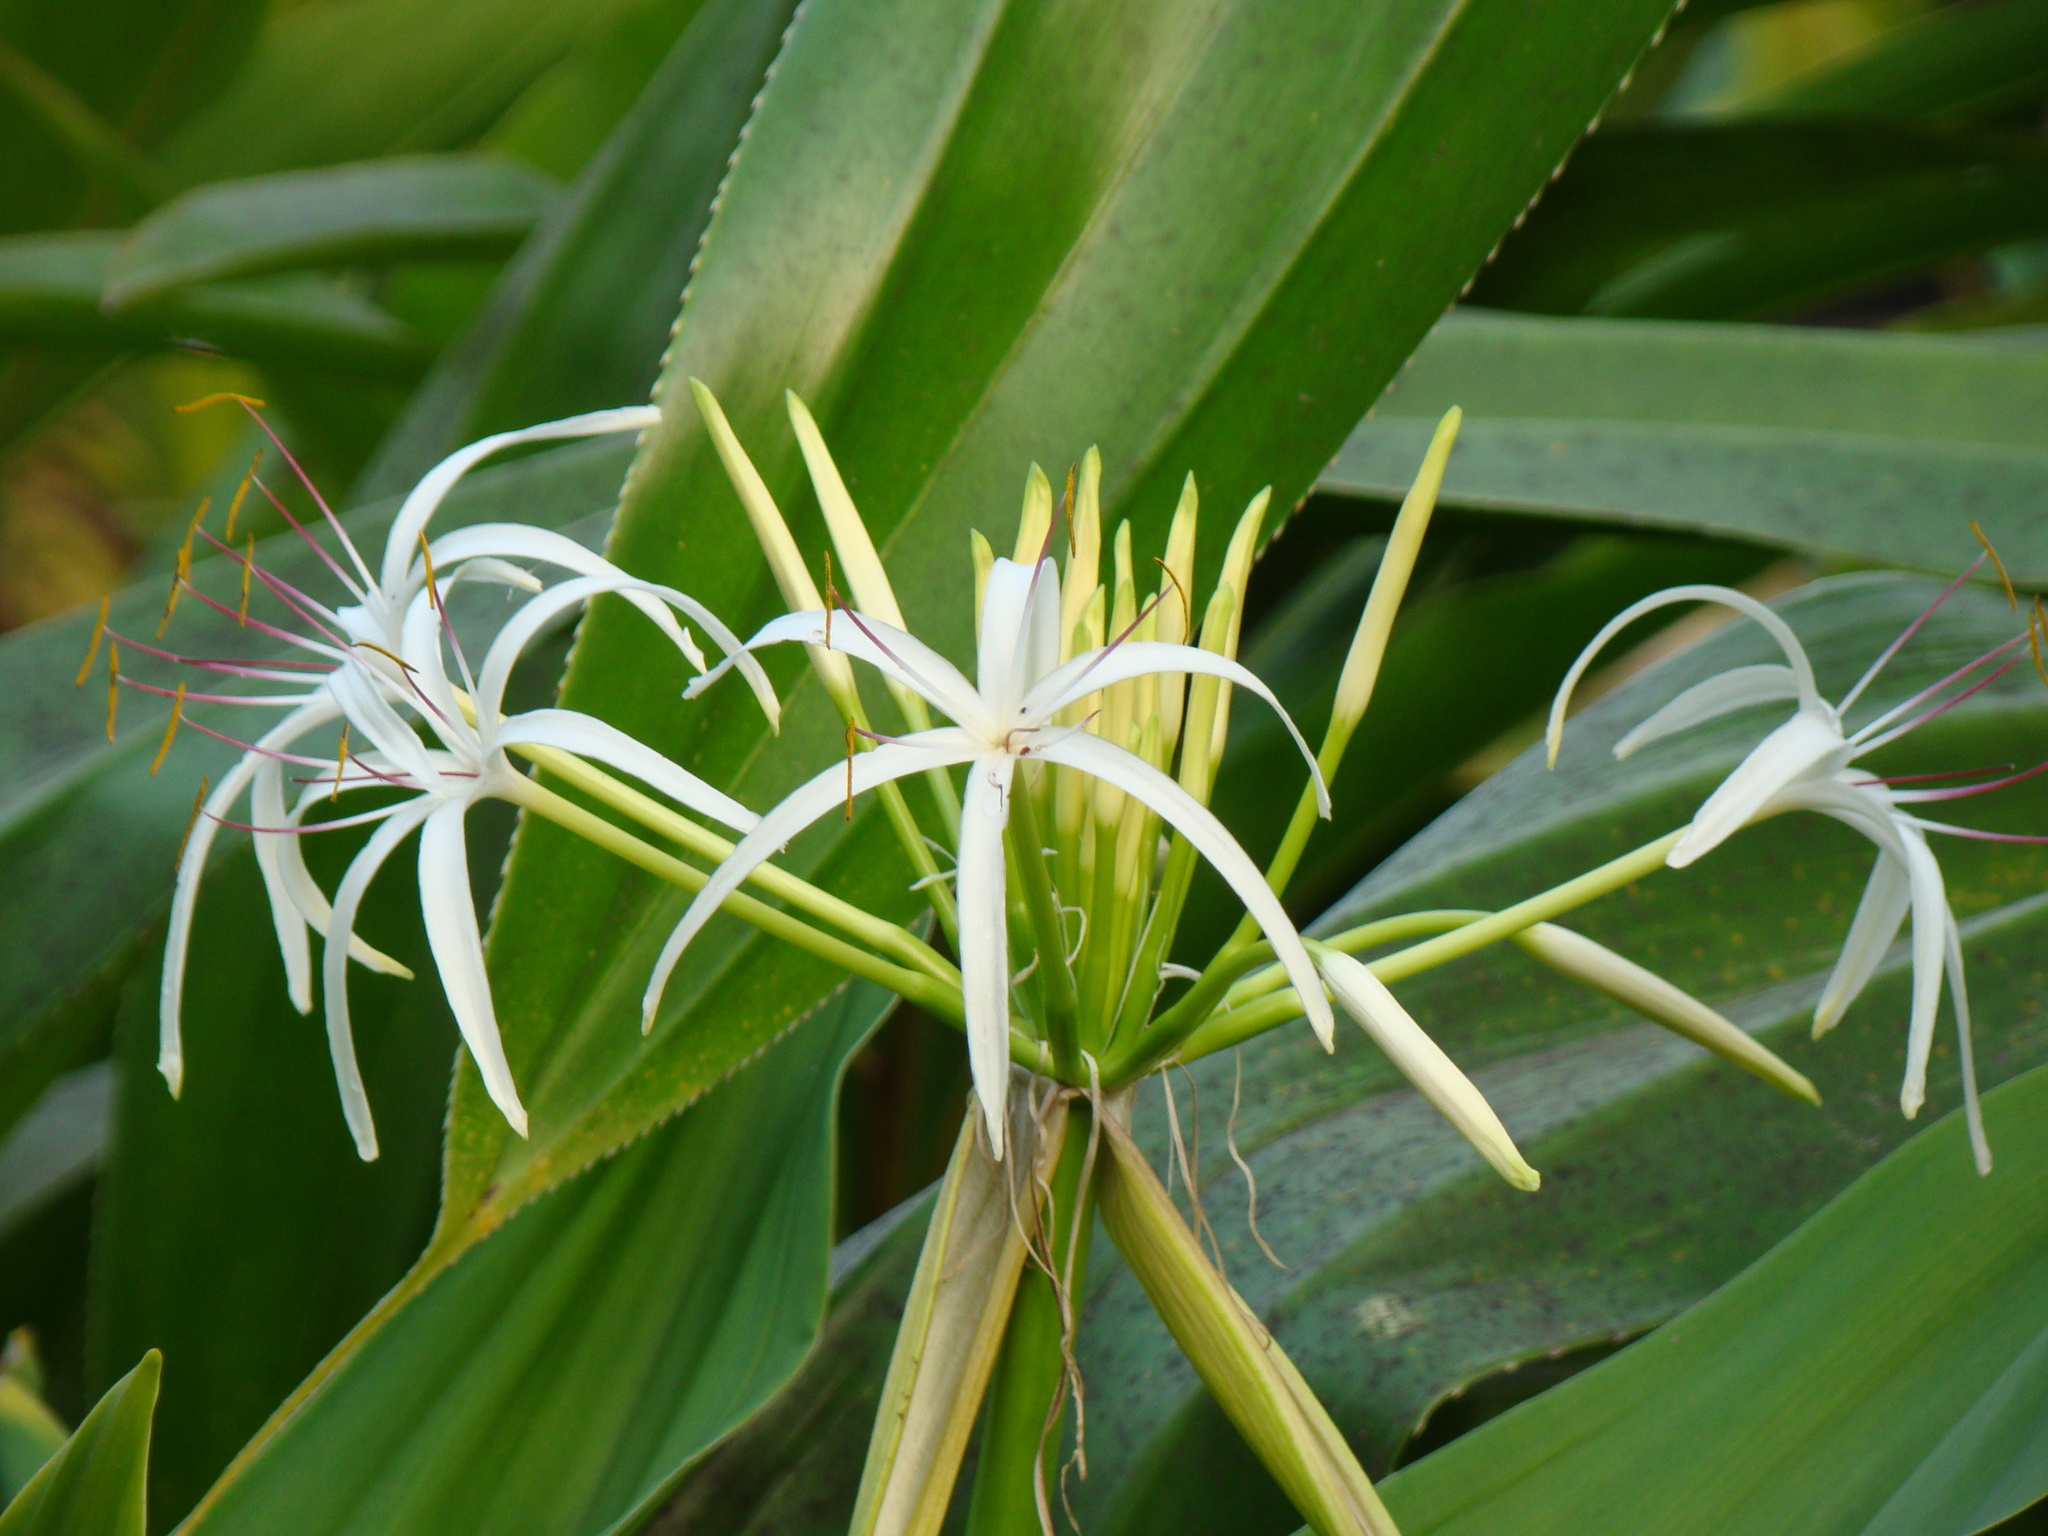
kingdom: Plantae
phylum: Tracheophyta
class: Liliopsida
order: Asparagales
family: Amaryllidaceae
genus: Crinum
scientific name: Crinum asiaticum
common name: Poisonbulb
